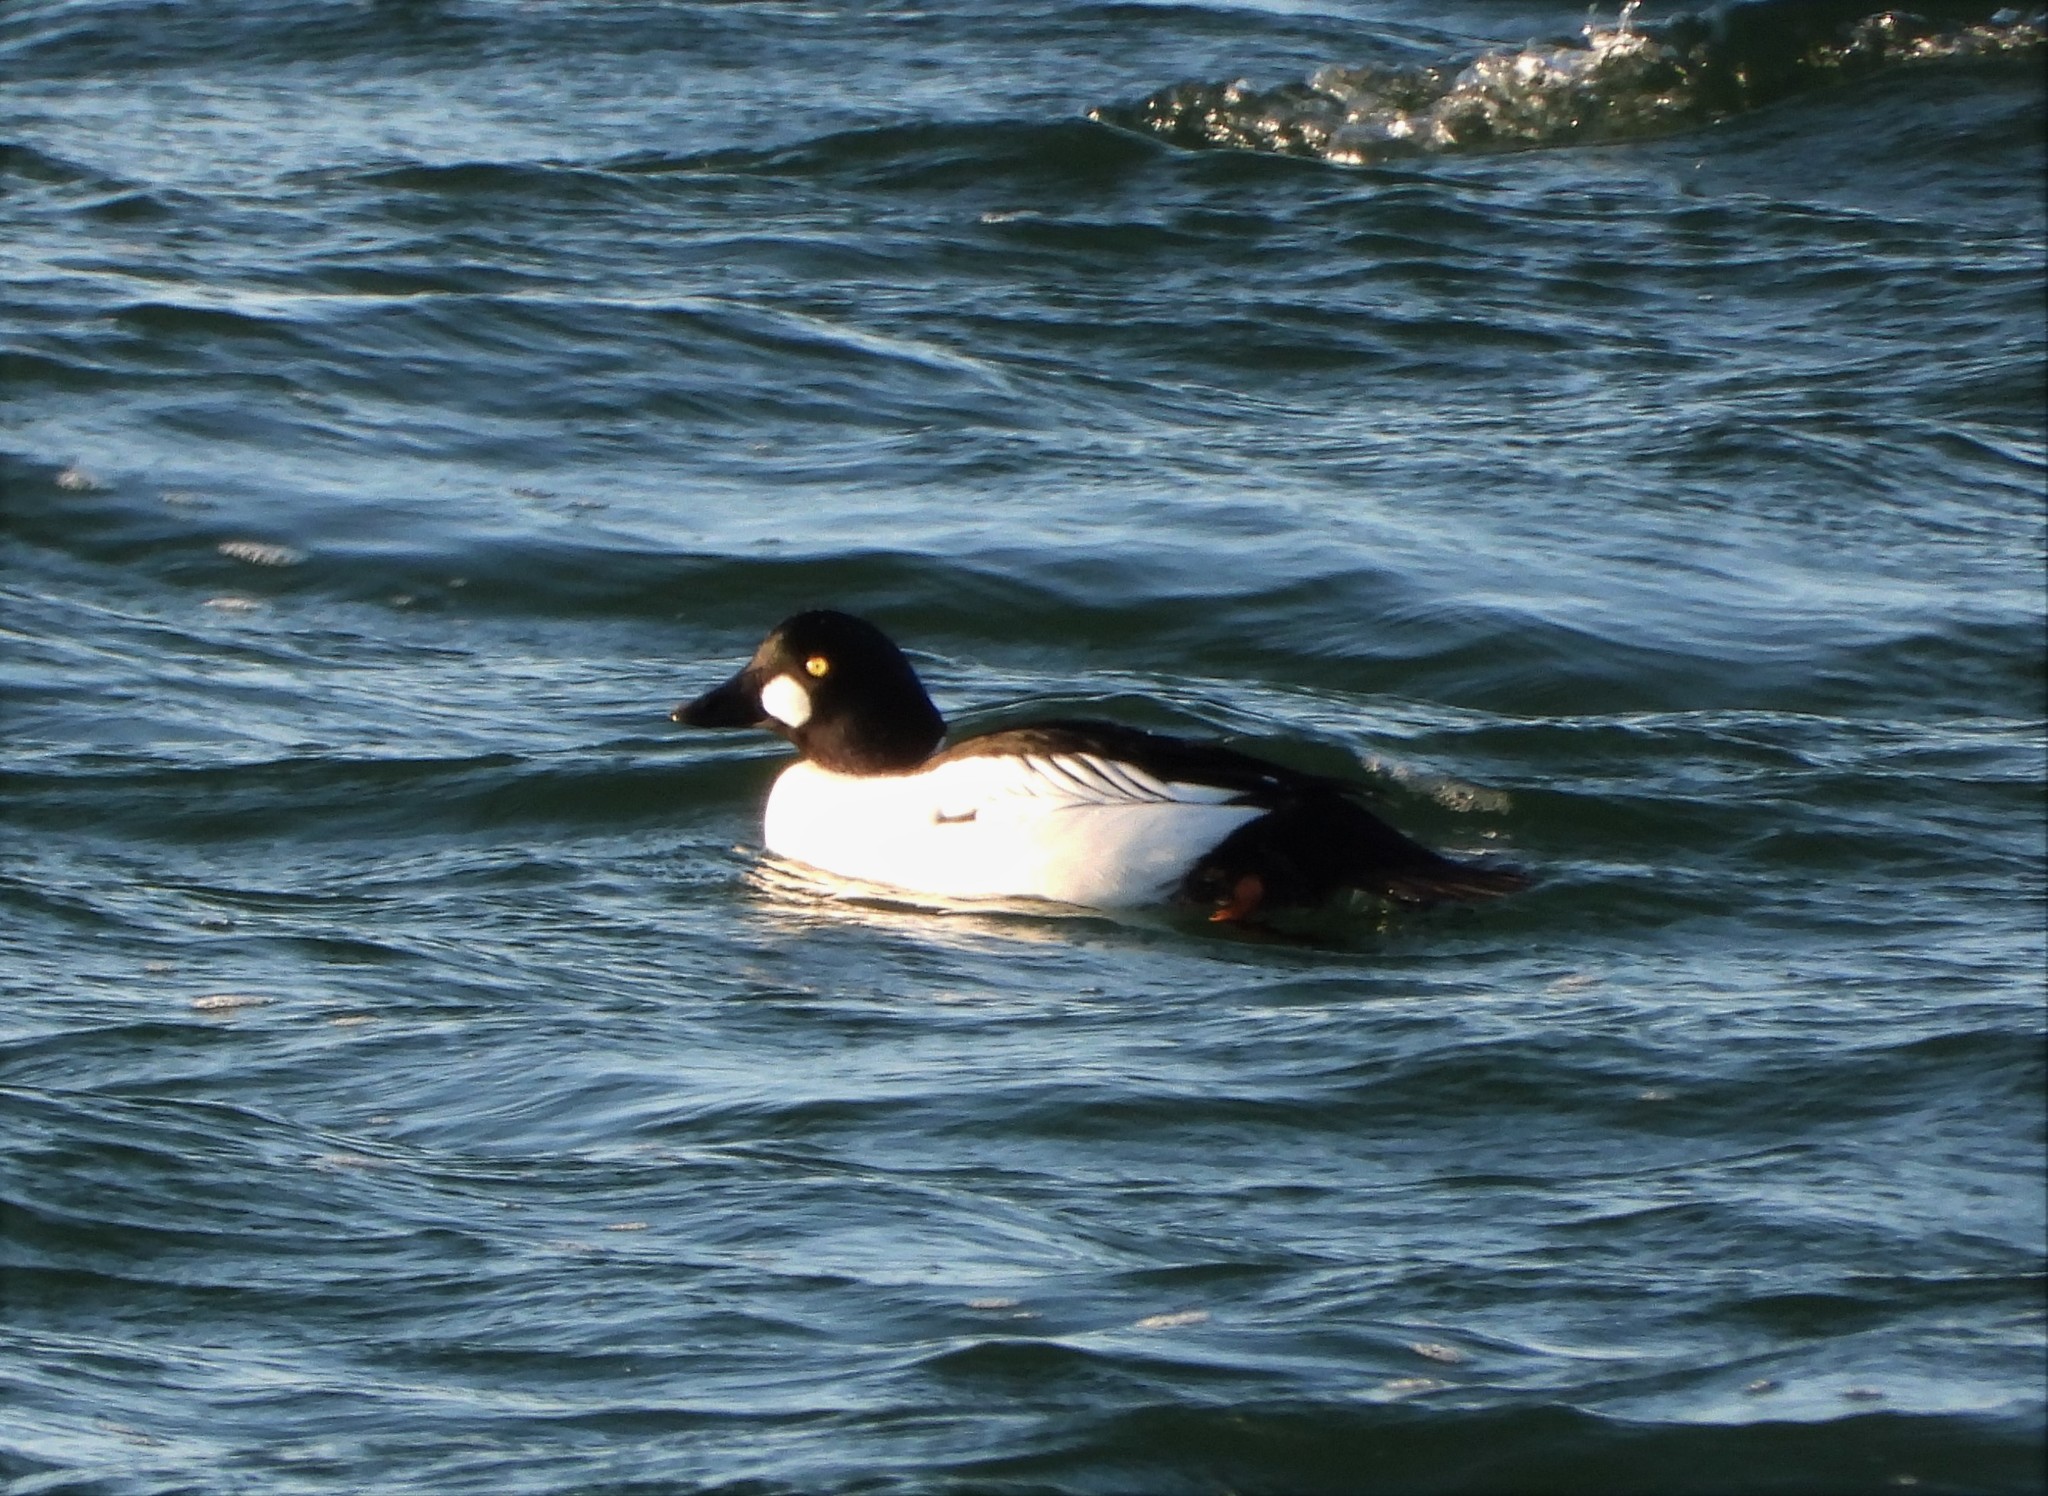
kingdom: Animalia
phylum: Chordata
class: Aves
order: Anseriformes
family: Anatidae
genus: Bucephala
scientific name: Bucephala clangula
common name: Common goldeneye
